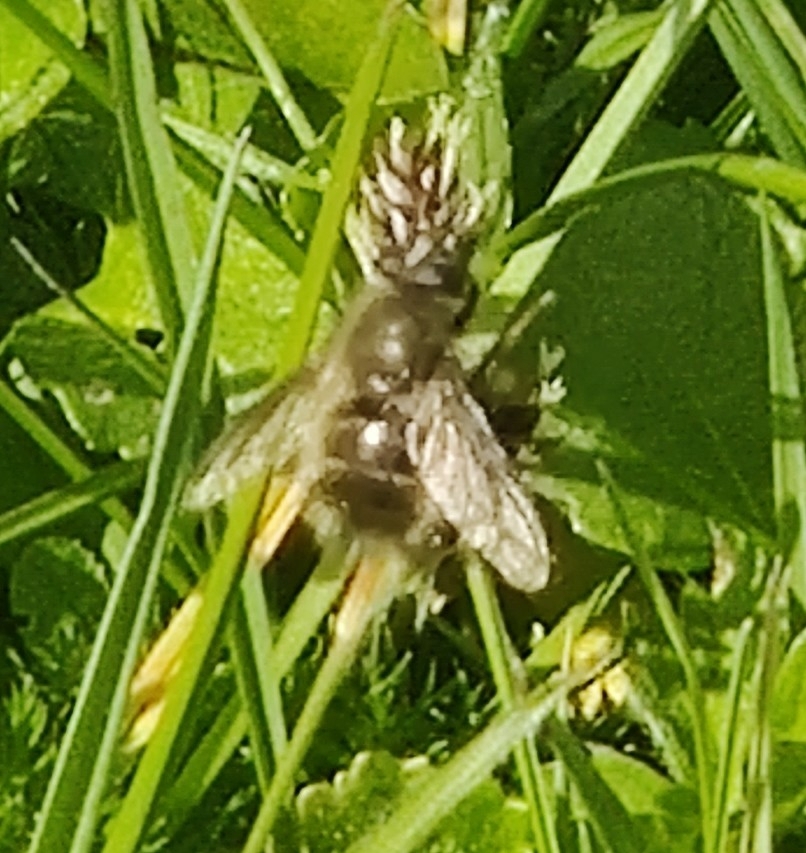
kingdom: Animalia
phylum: Arthropoda
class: Insecta
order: Diptera
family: Tachinidae
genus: Tachina
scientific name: Tachina ursina
